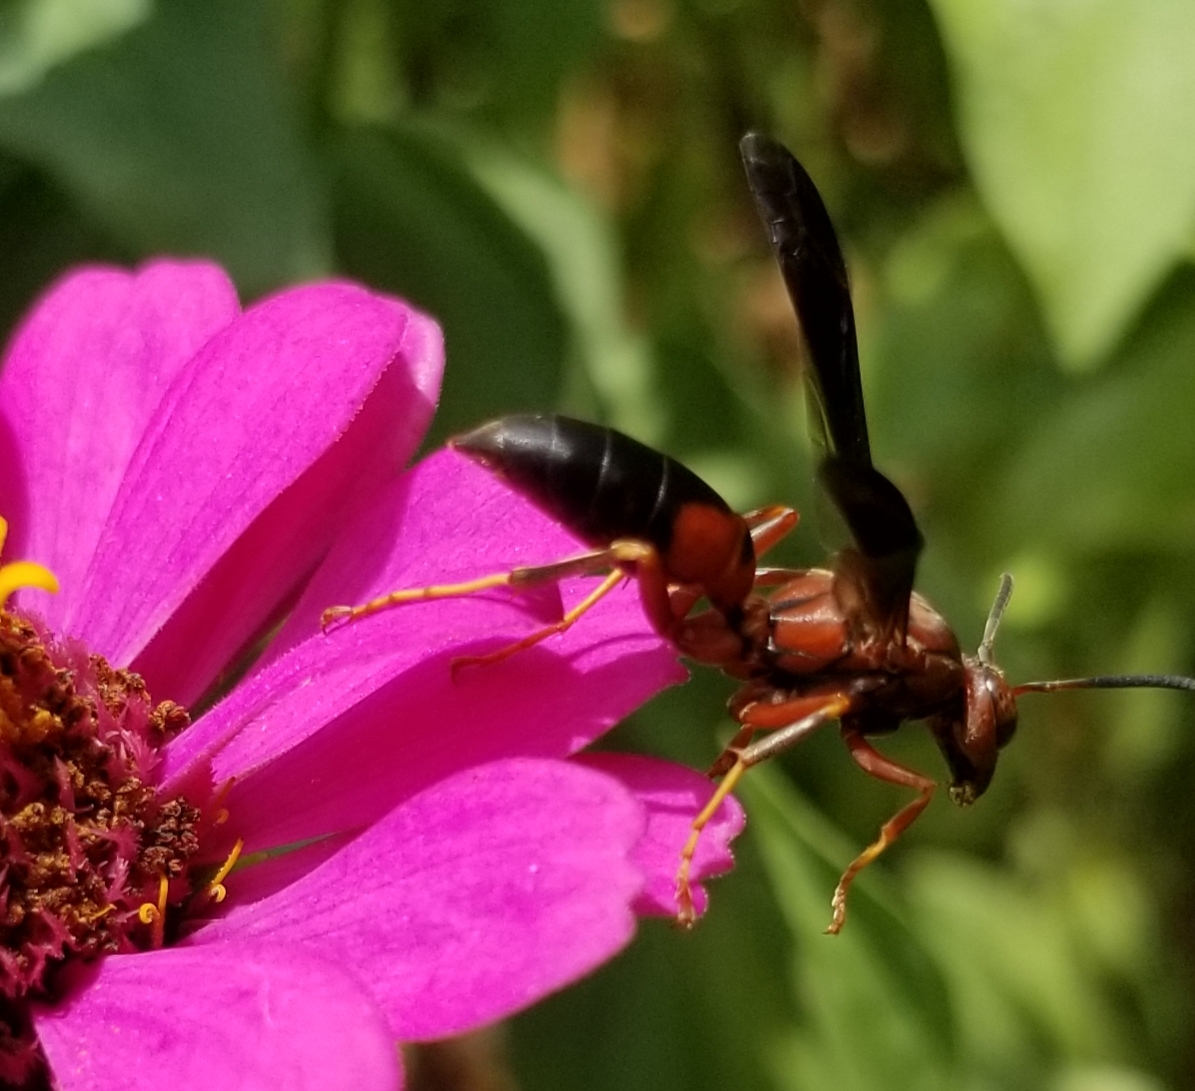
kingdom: Animalia
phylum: Arthropoda
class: Insecta
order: Hymenoptera
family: Eumenidae
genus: Polistes
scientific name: Polistes
